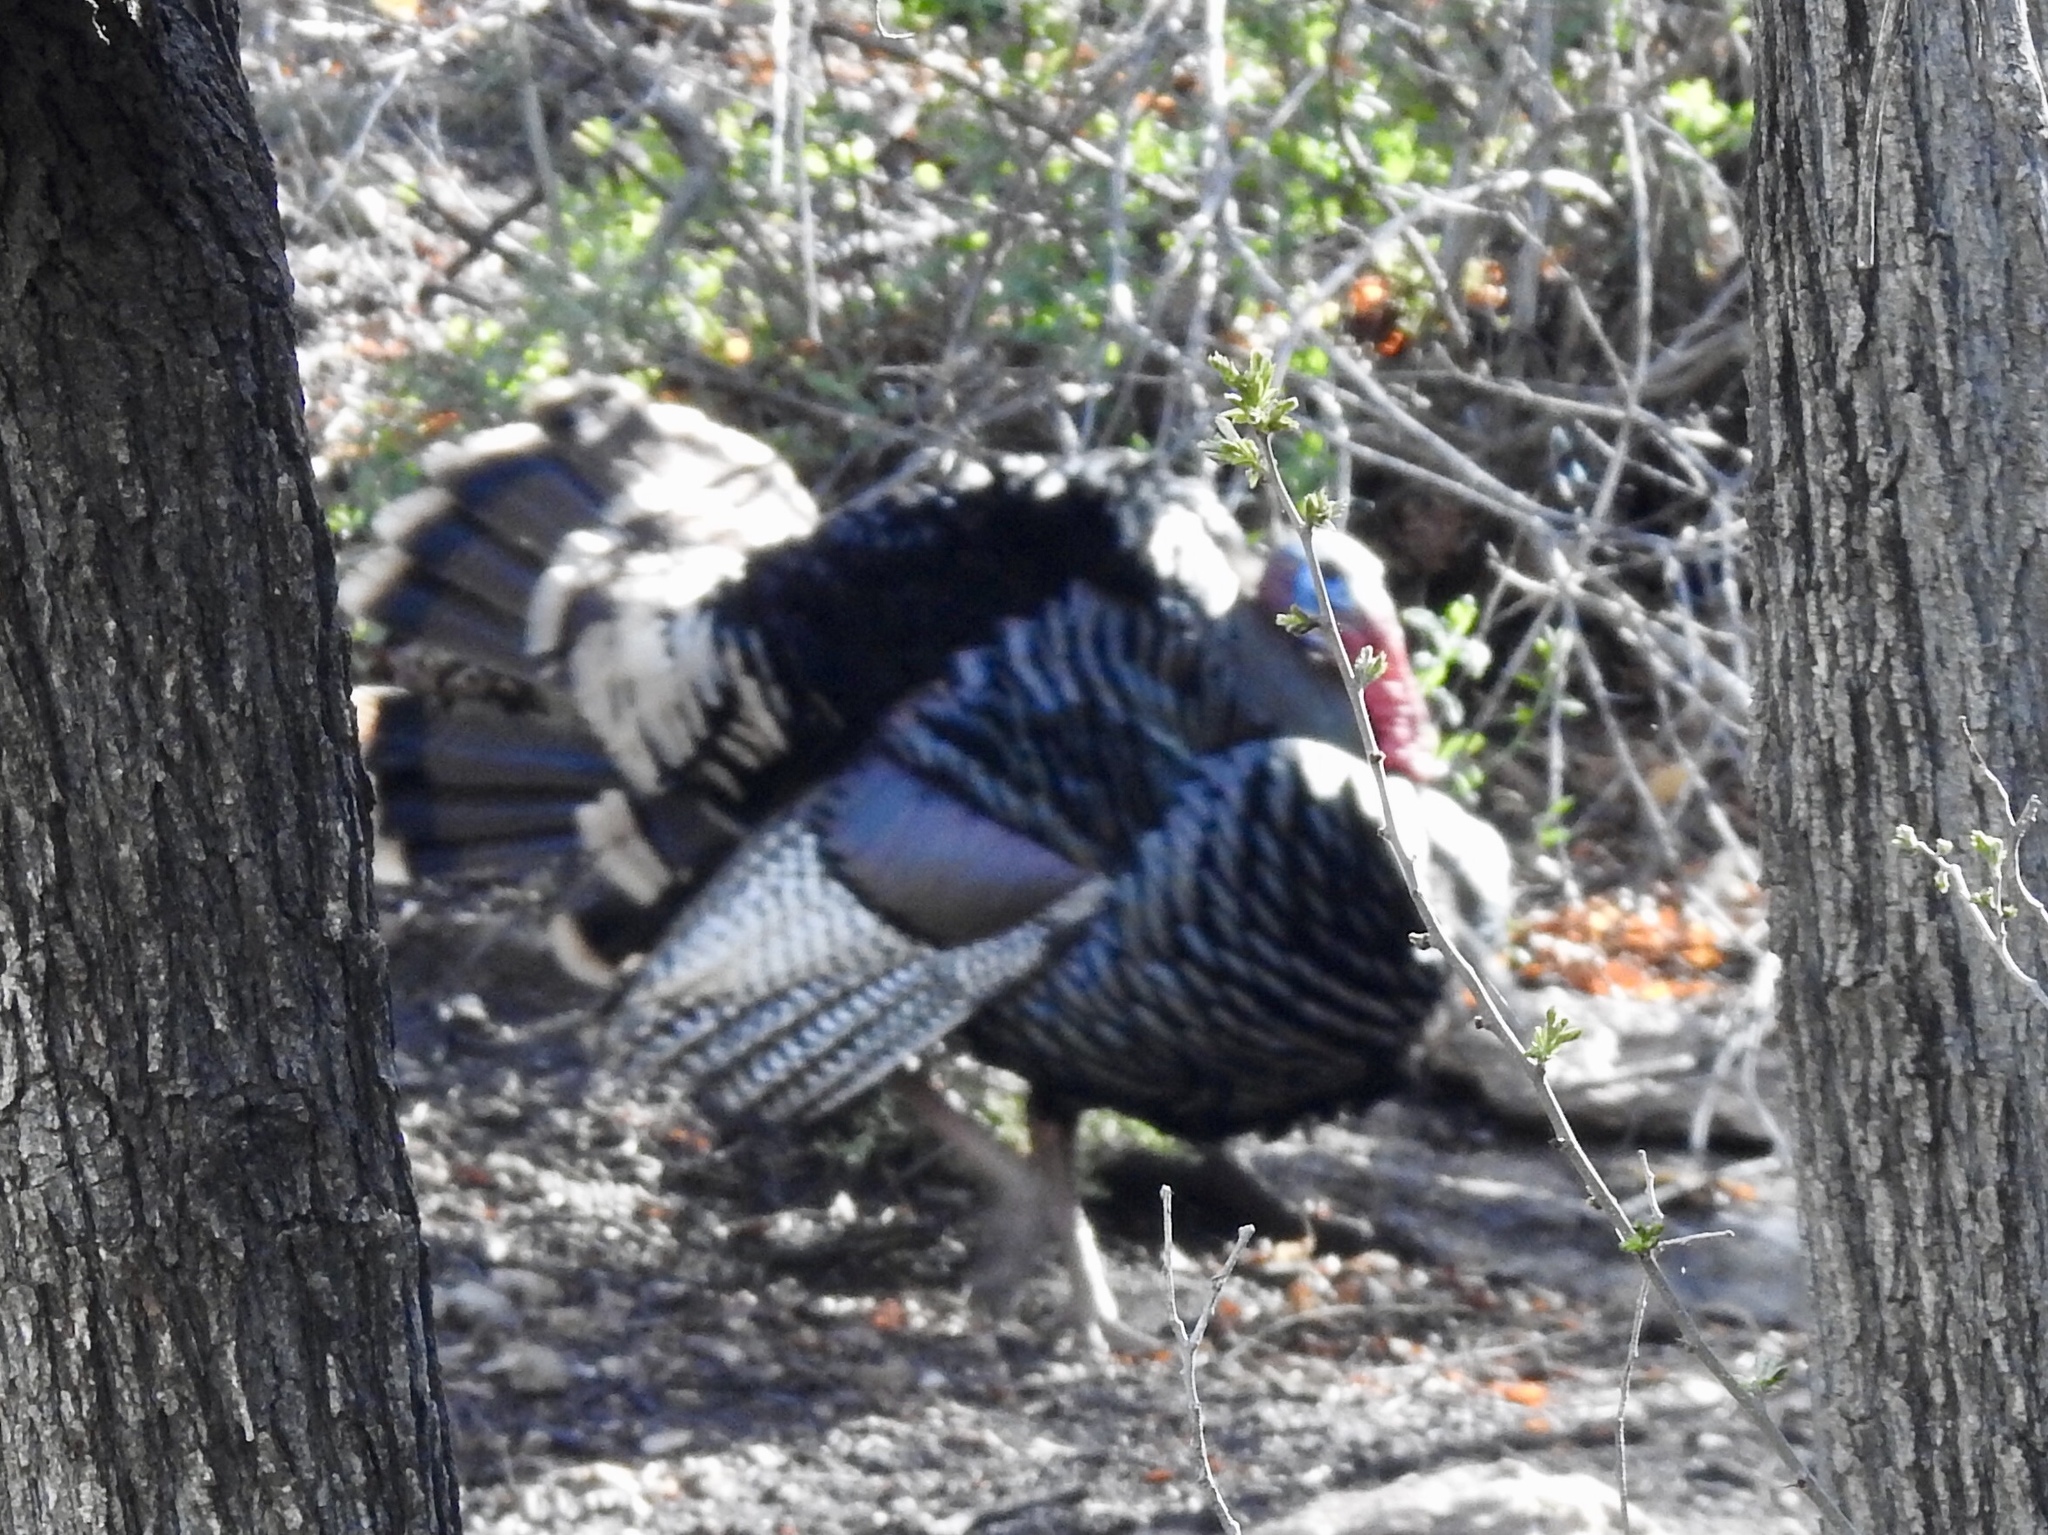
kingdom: Animalia
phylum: Chordata
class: Aves
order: Galliformes
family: Phasianidae
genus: Meleagris
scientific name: Meleagris gallopavo
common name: Wild turkey
